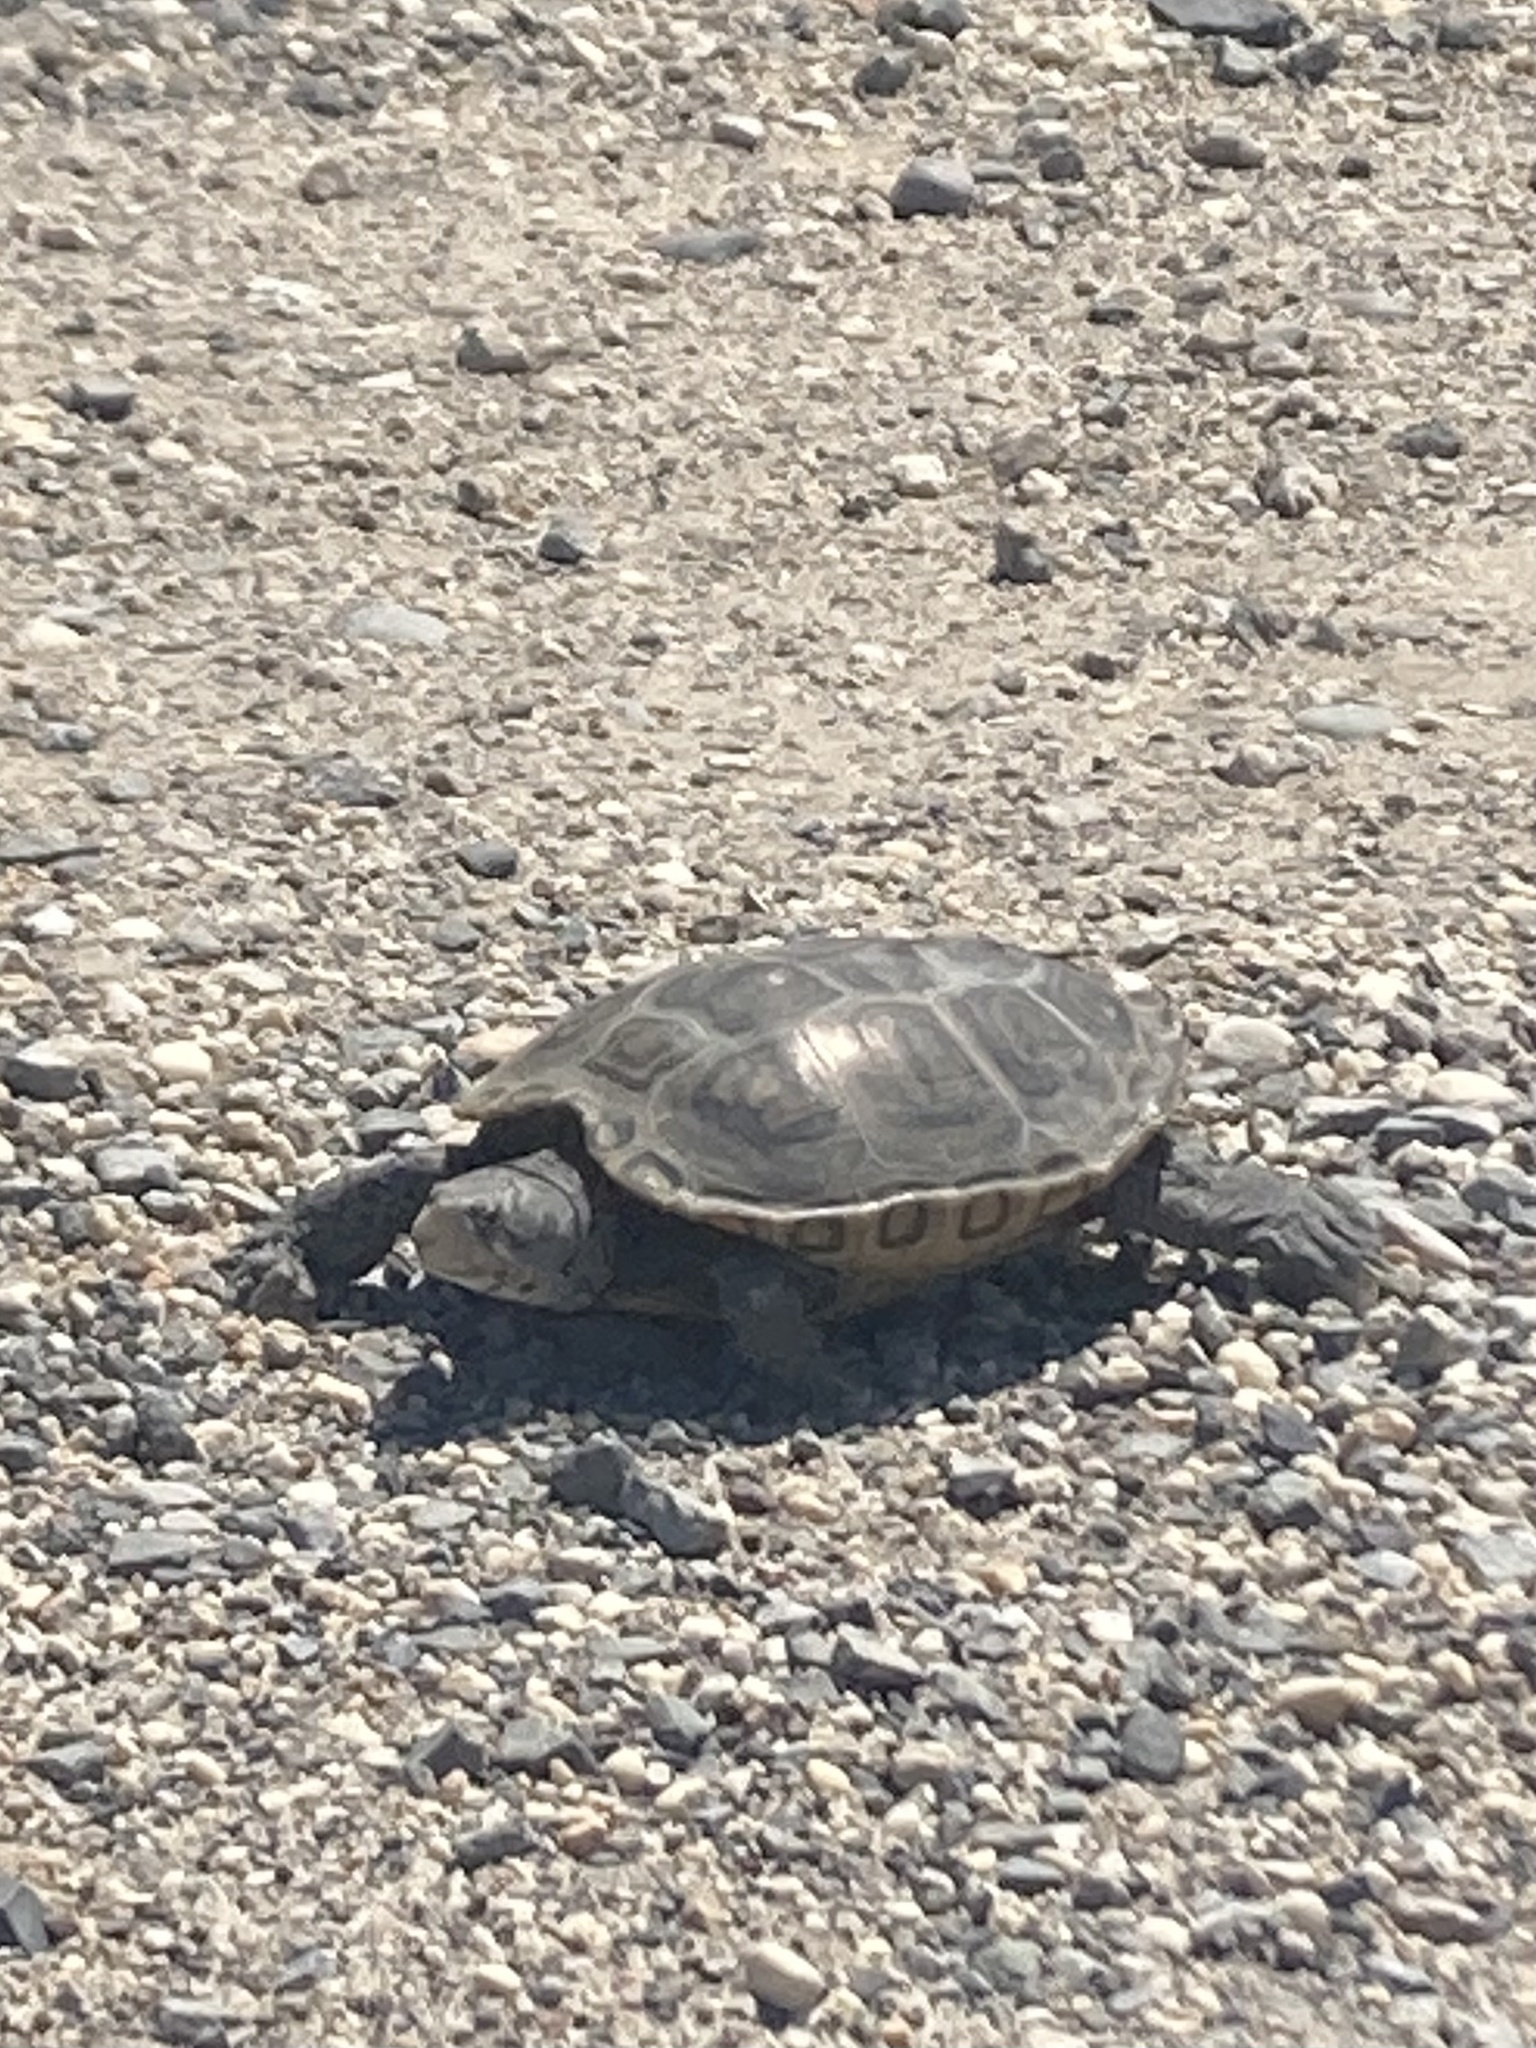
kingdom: Animalia
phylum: Chordata
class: Testudines
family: Emydidae
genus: Malaclemys
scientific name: Malaclemys terrapin
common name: Diamondback terrapin
